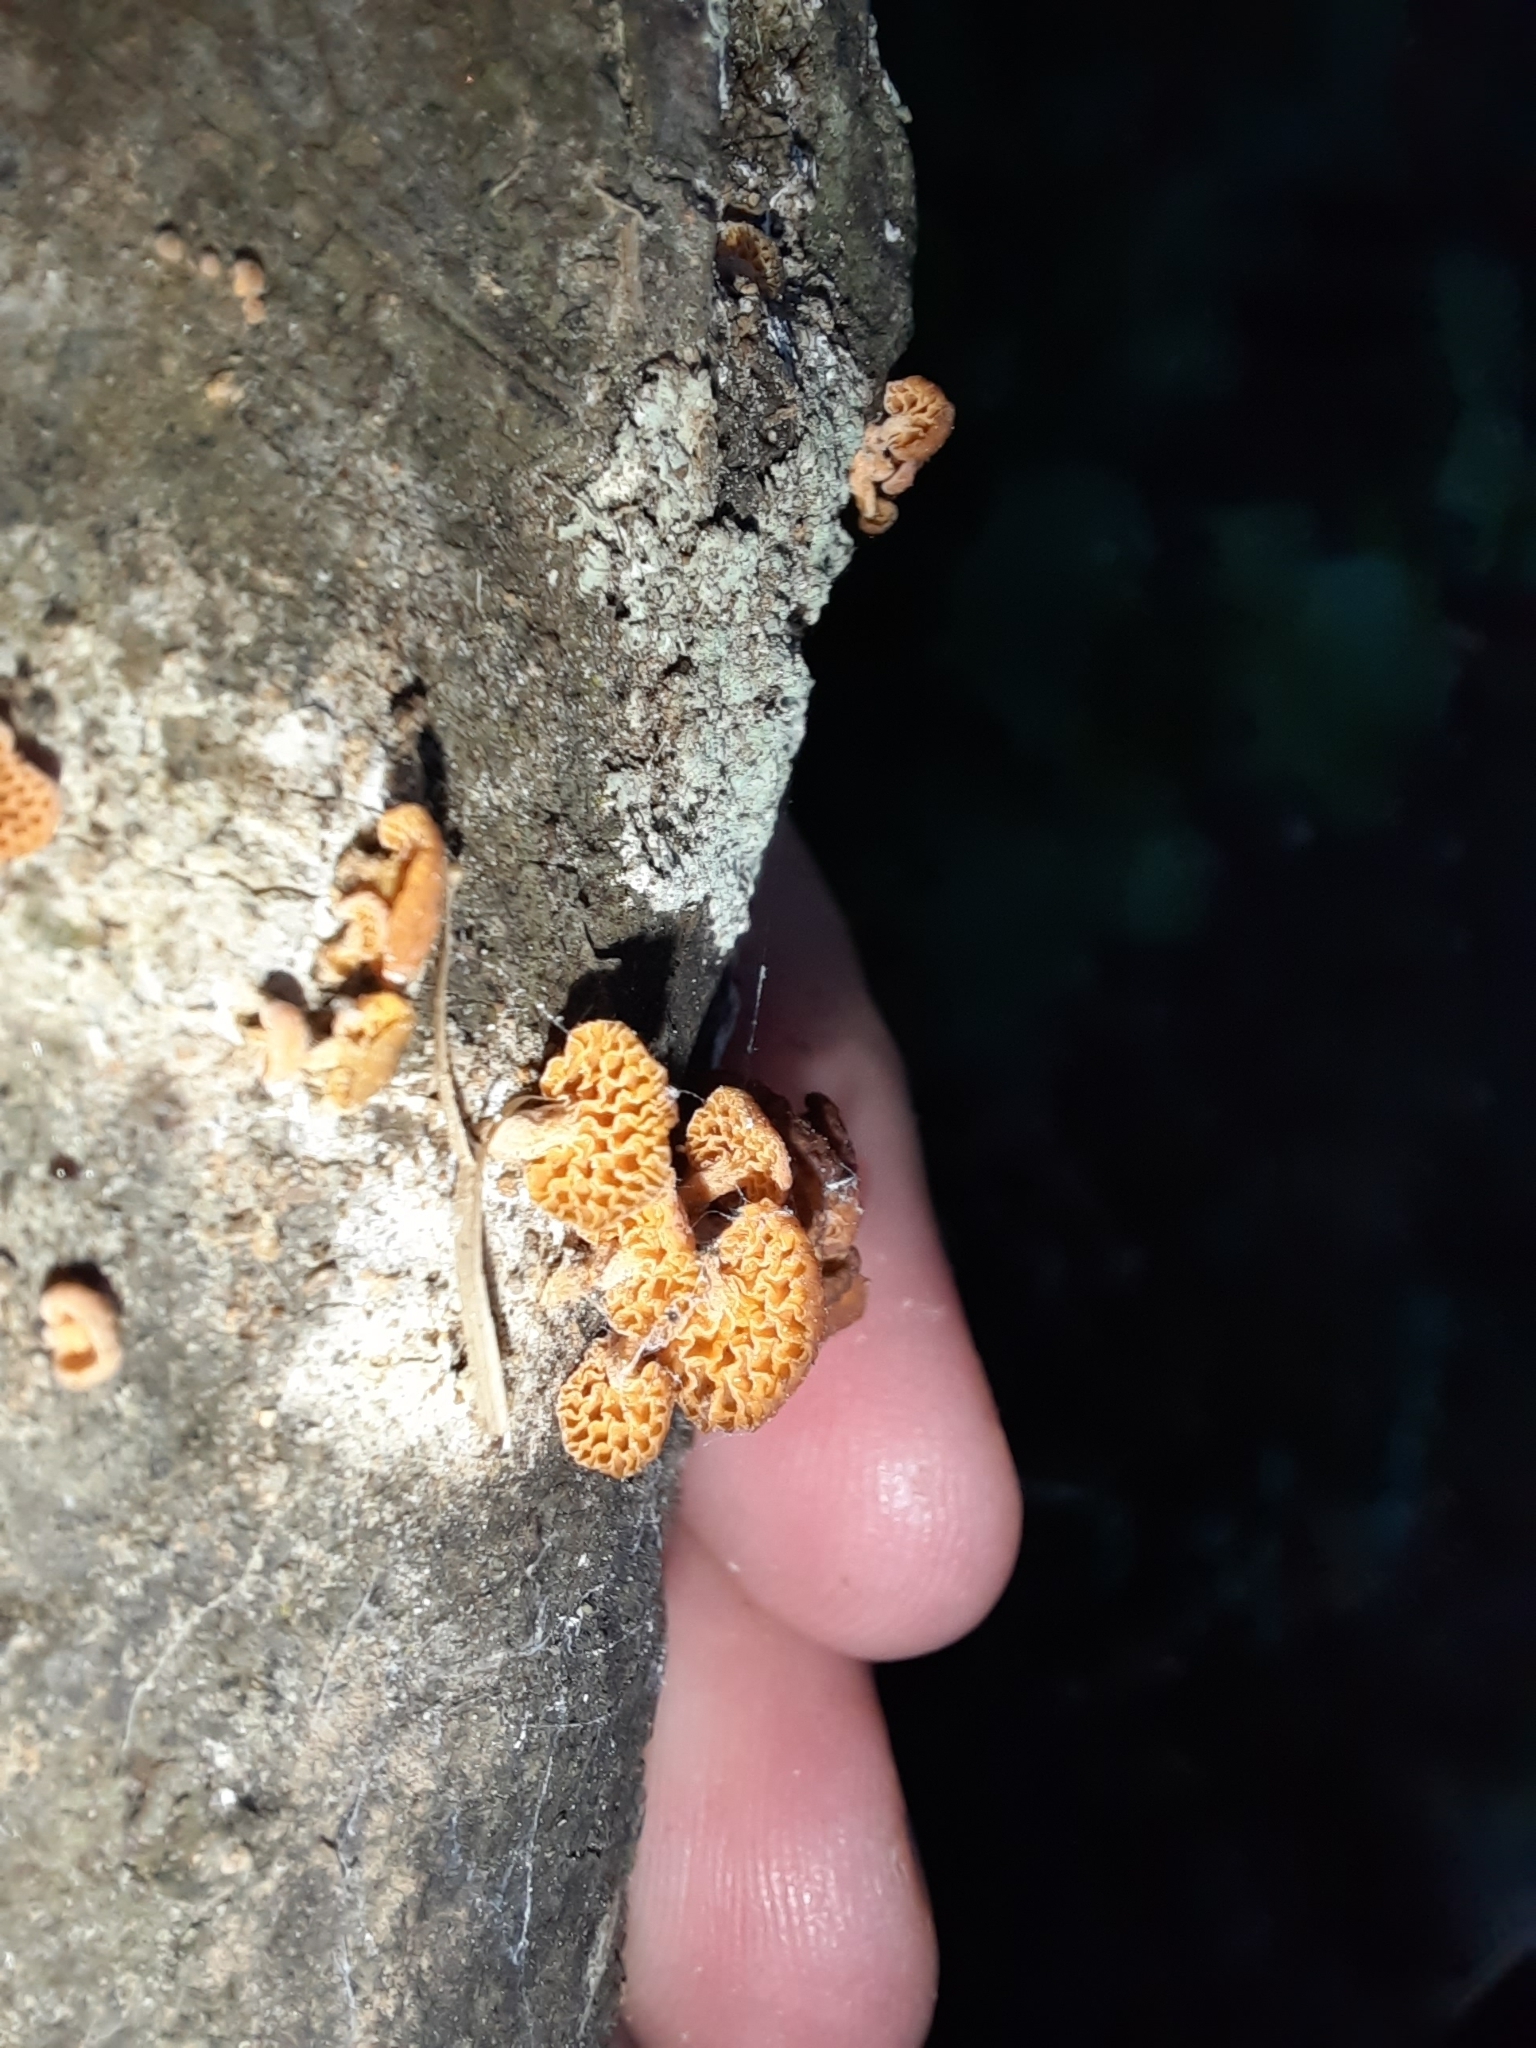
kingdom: Fungi
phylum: Basidiomycota
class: Agaricomycetes
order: Agaricales
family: Mycenaceae
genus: Favolaschia
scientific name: Favolaschia claudopus
